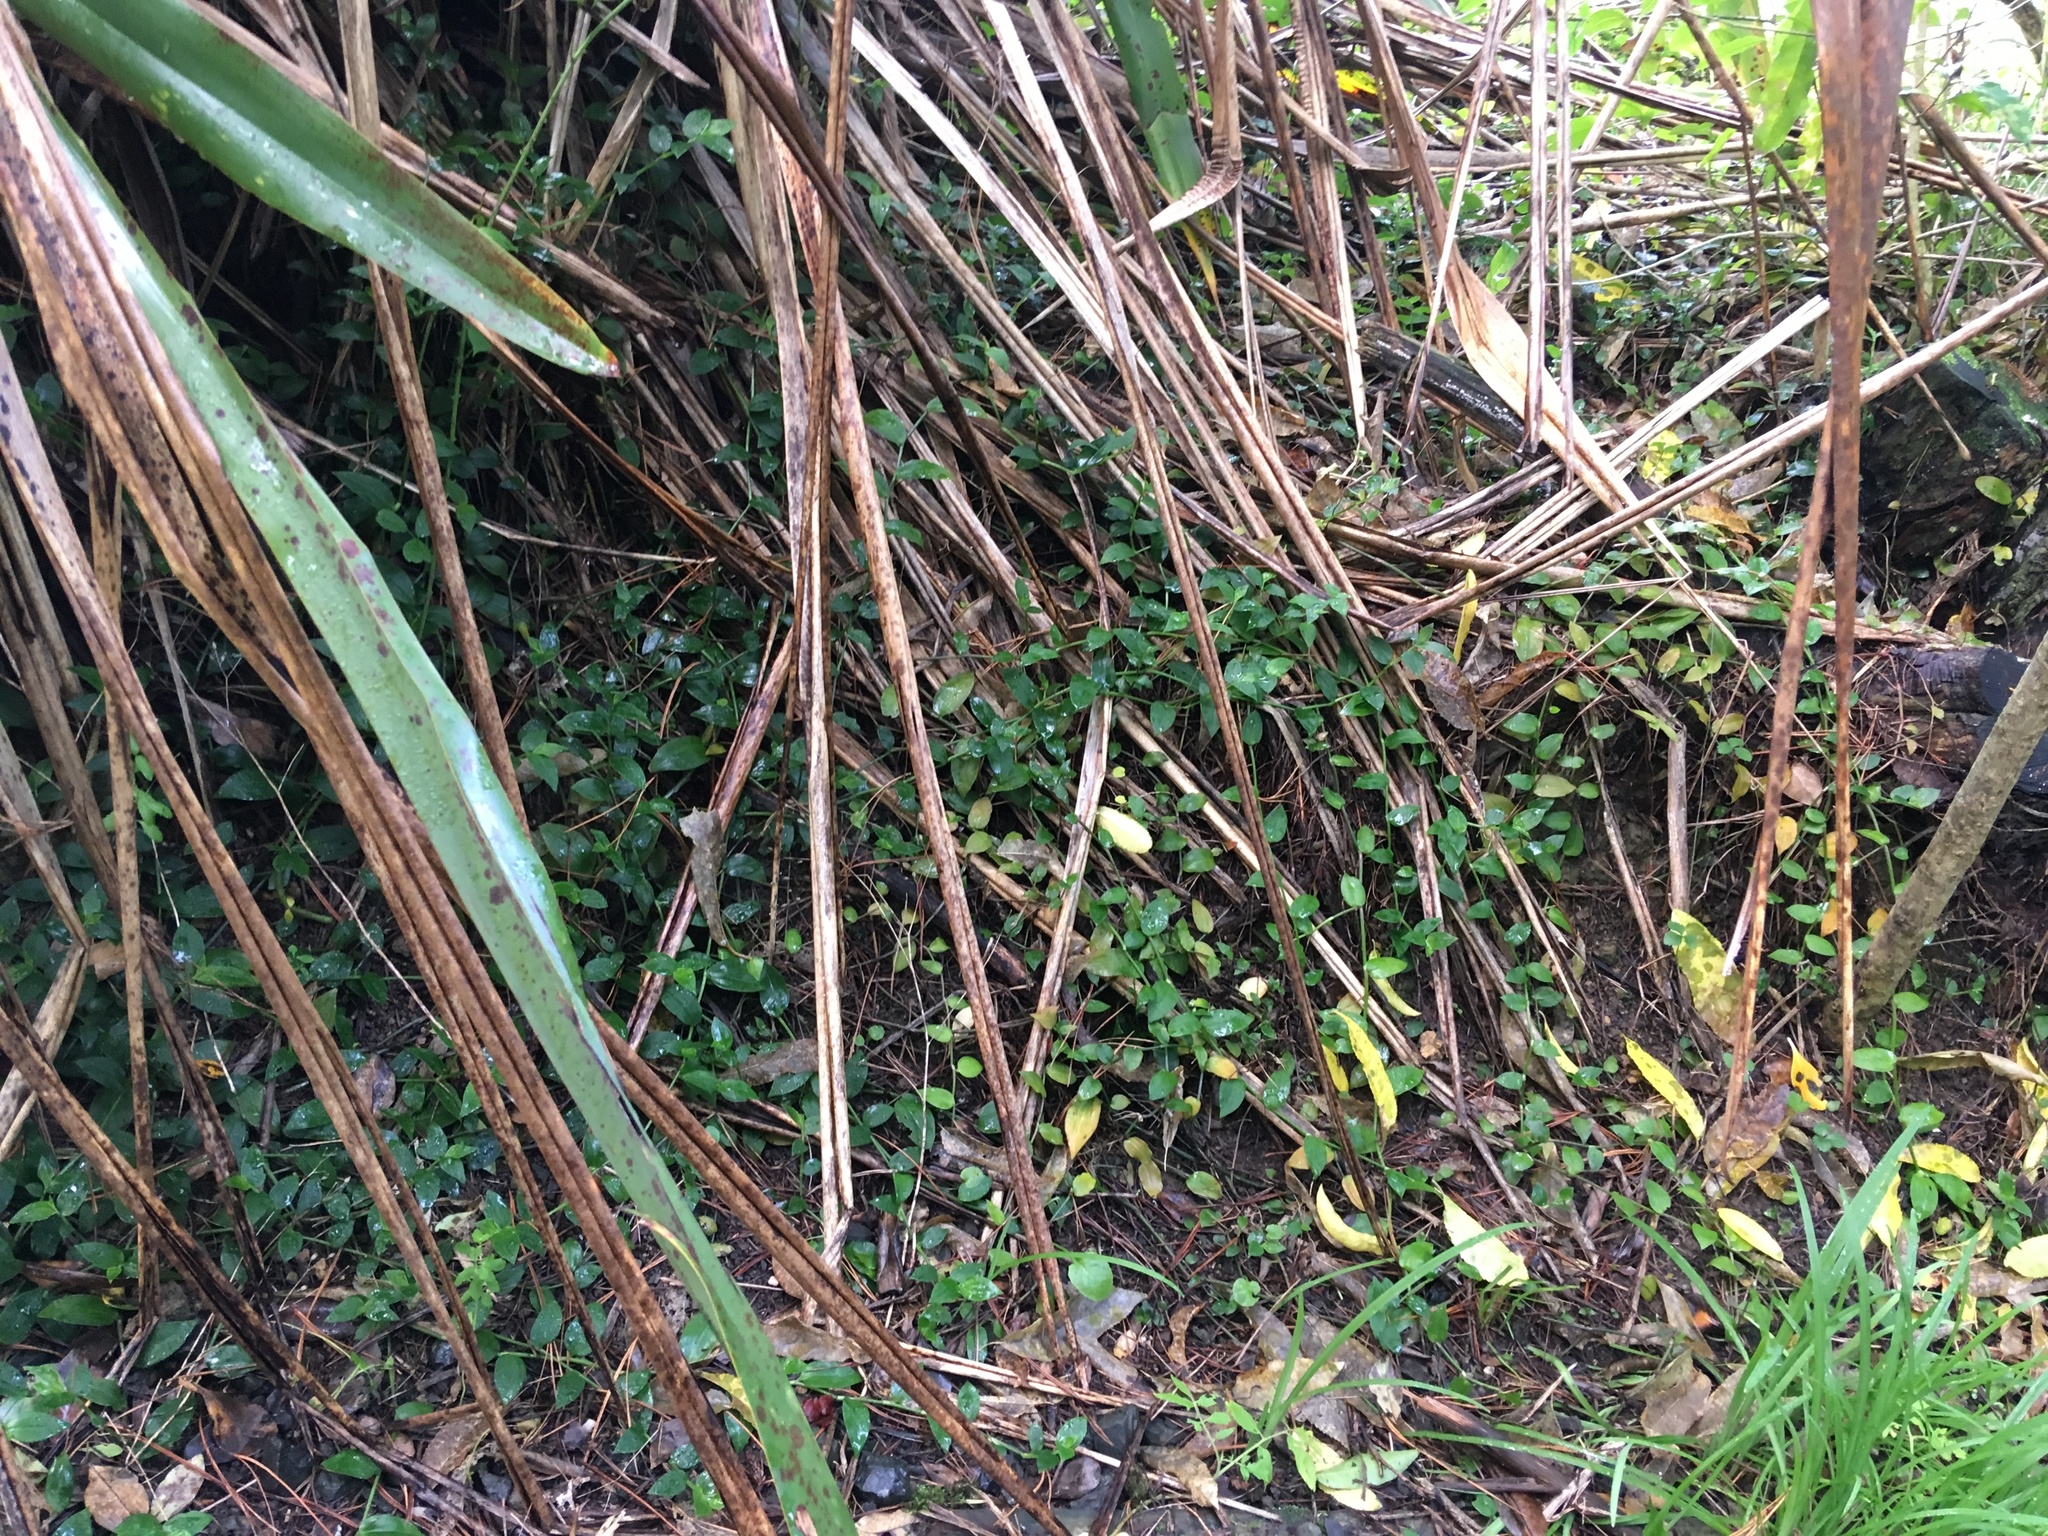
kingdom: Plantae
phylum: Tracheophyta
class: Liliopsida
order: Commelinales
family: Commelinaceae
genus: Tradescantia
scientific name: Tradescantia fluminensis
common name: Wandering-jew
